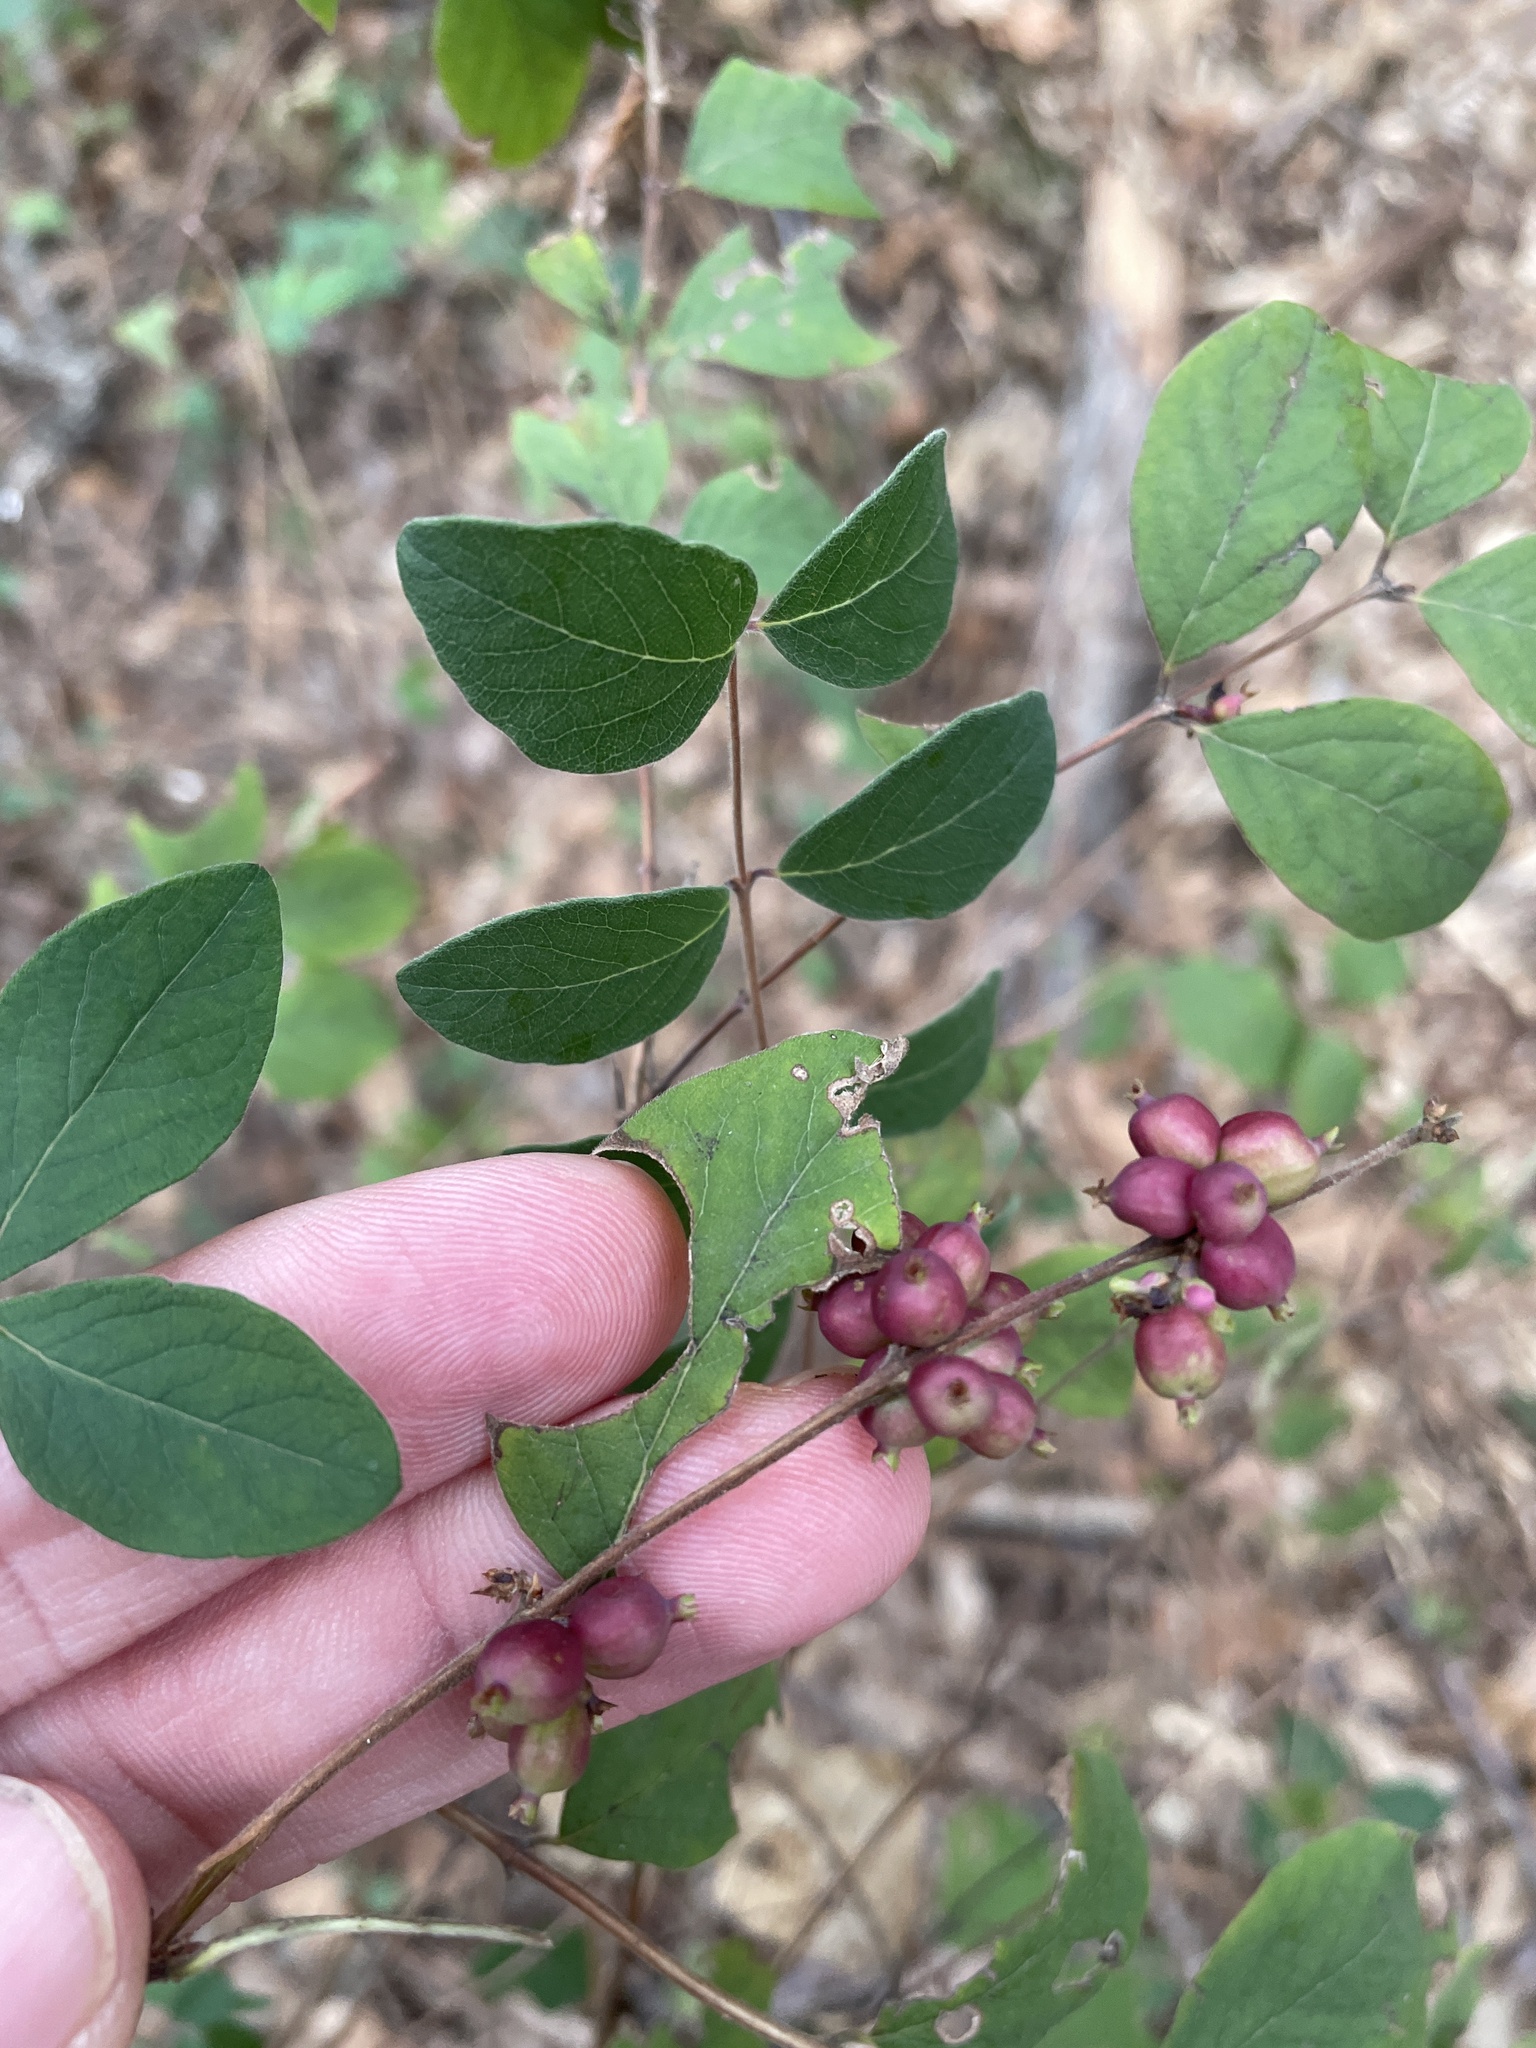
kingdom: Plantae
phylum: Tracheophyta
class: Magnoliopsida
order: Dipsacales
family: Caprifoliaceae
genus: Symphoricarpos
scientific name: Symphoricarpos orbiculatus
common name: Coralberry
